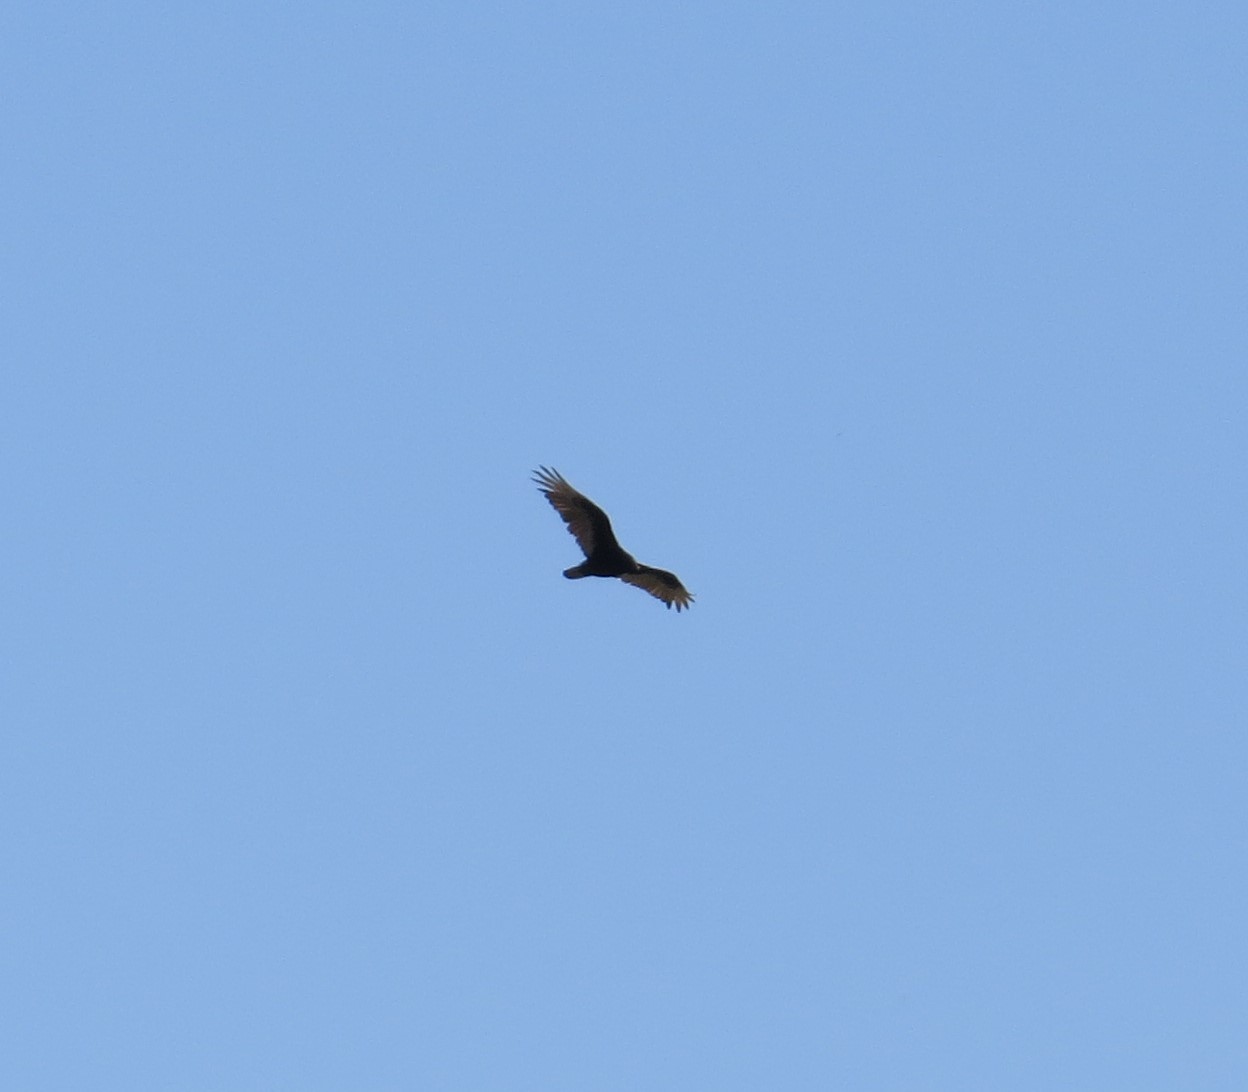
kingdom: Animalia
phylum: Chordata
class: Aves
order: Accipitriformes
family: Cathartidae
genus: Cathartes
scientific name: Cathartes aura
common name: Turkey vulture
